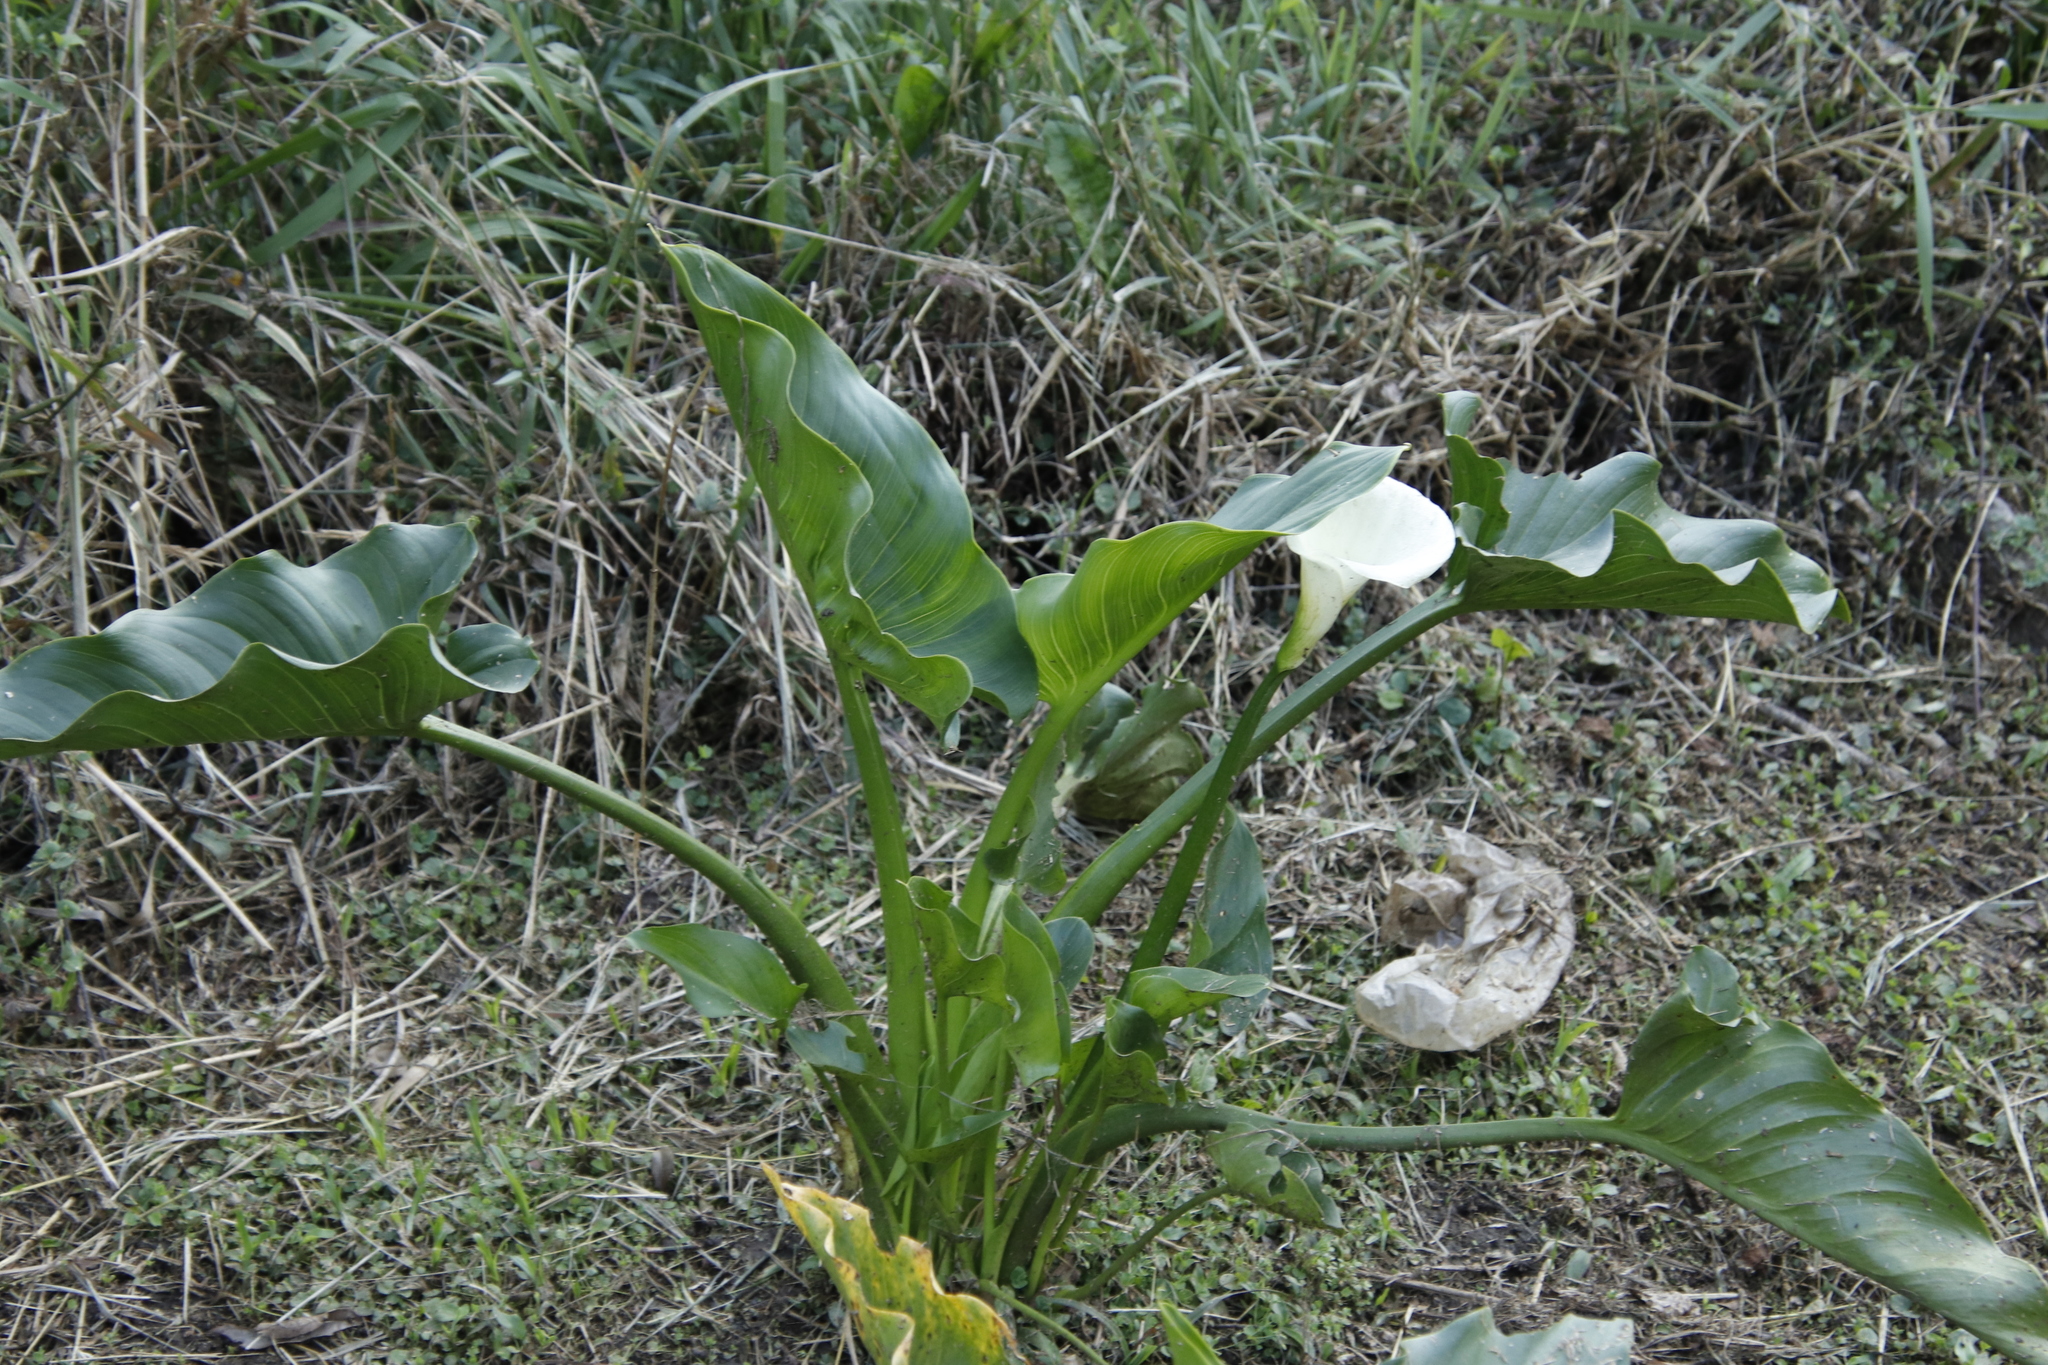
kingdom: Plantae
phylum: Tracheophyta
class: Liliopsida
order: Alismatales
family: Araceae
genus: Zantedeschia
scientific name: Zantedeschia aethiopica
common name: Altar-lily
